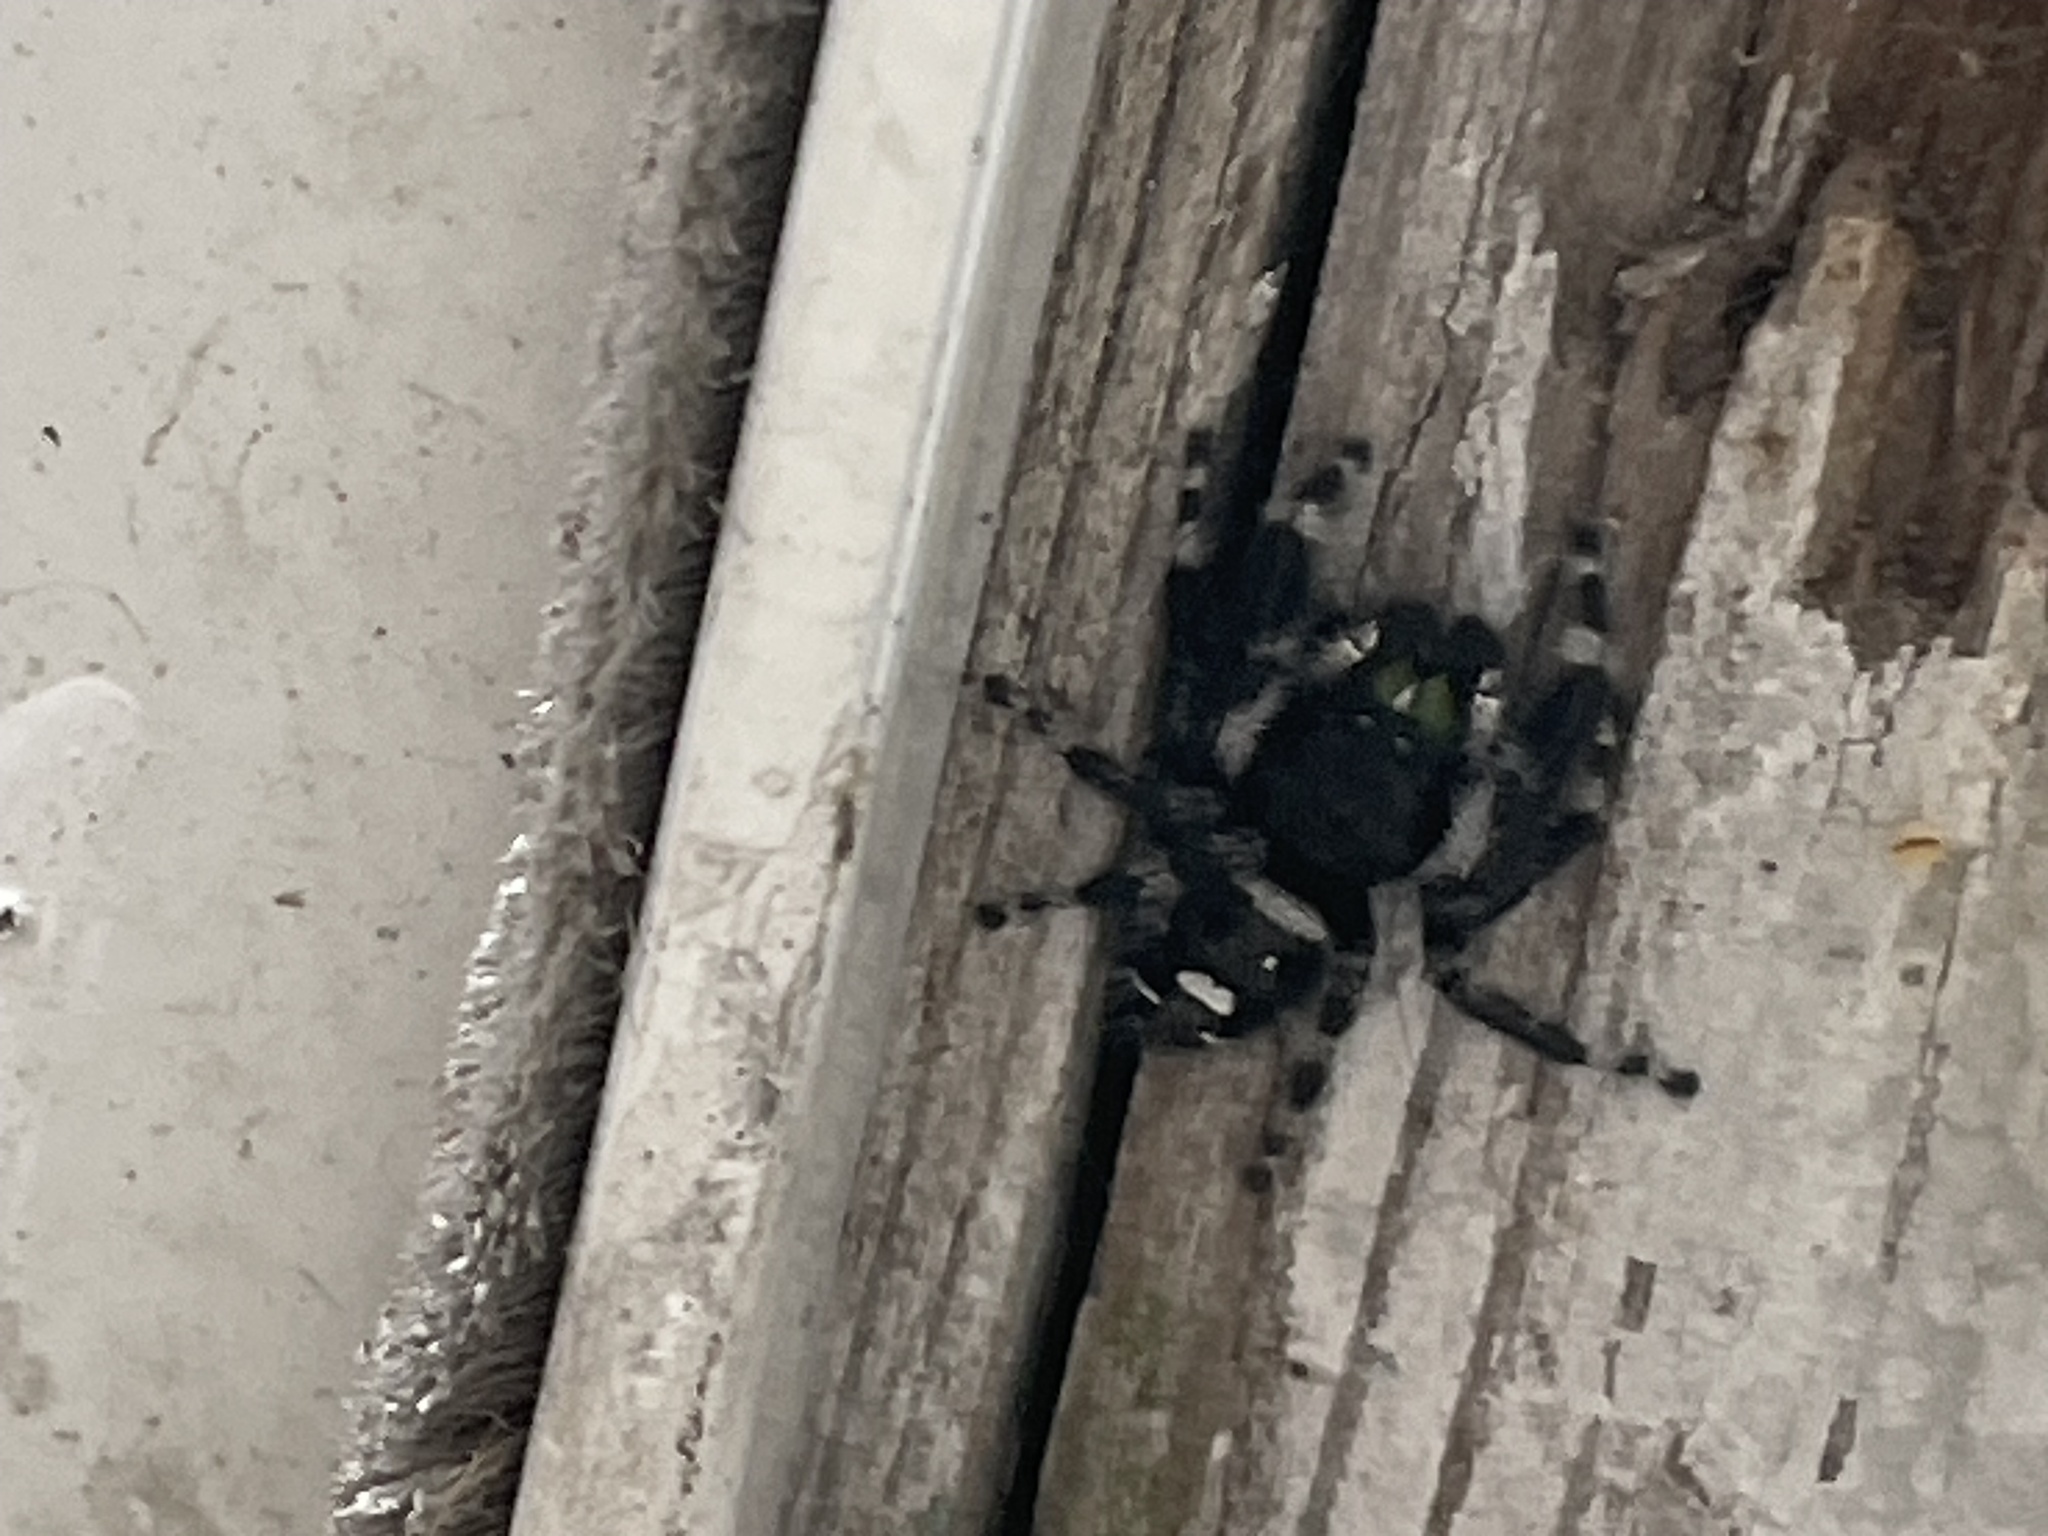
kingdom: Animalia
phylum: Arthropoda
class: Arachnida
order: Araneae
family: Salticidae
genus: Phidippus
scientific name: Phidippus audax
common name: Bold jumper
